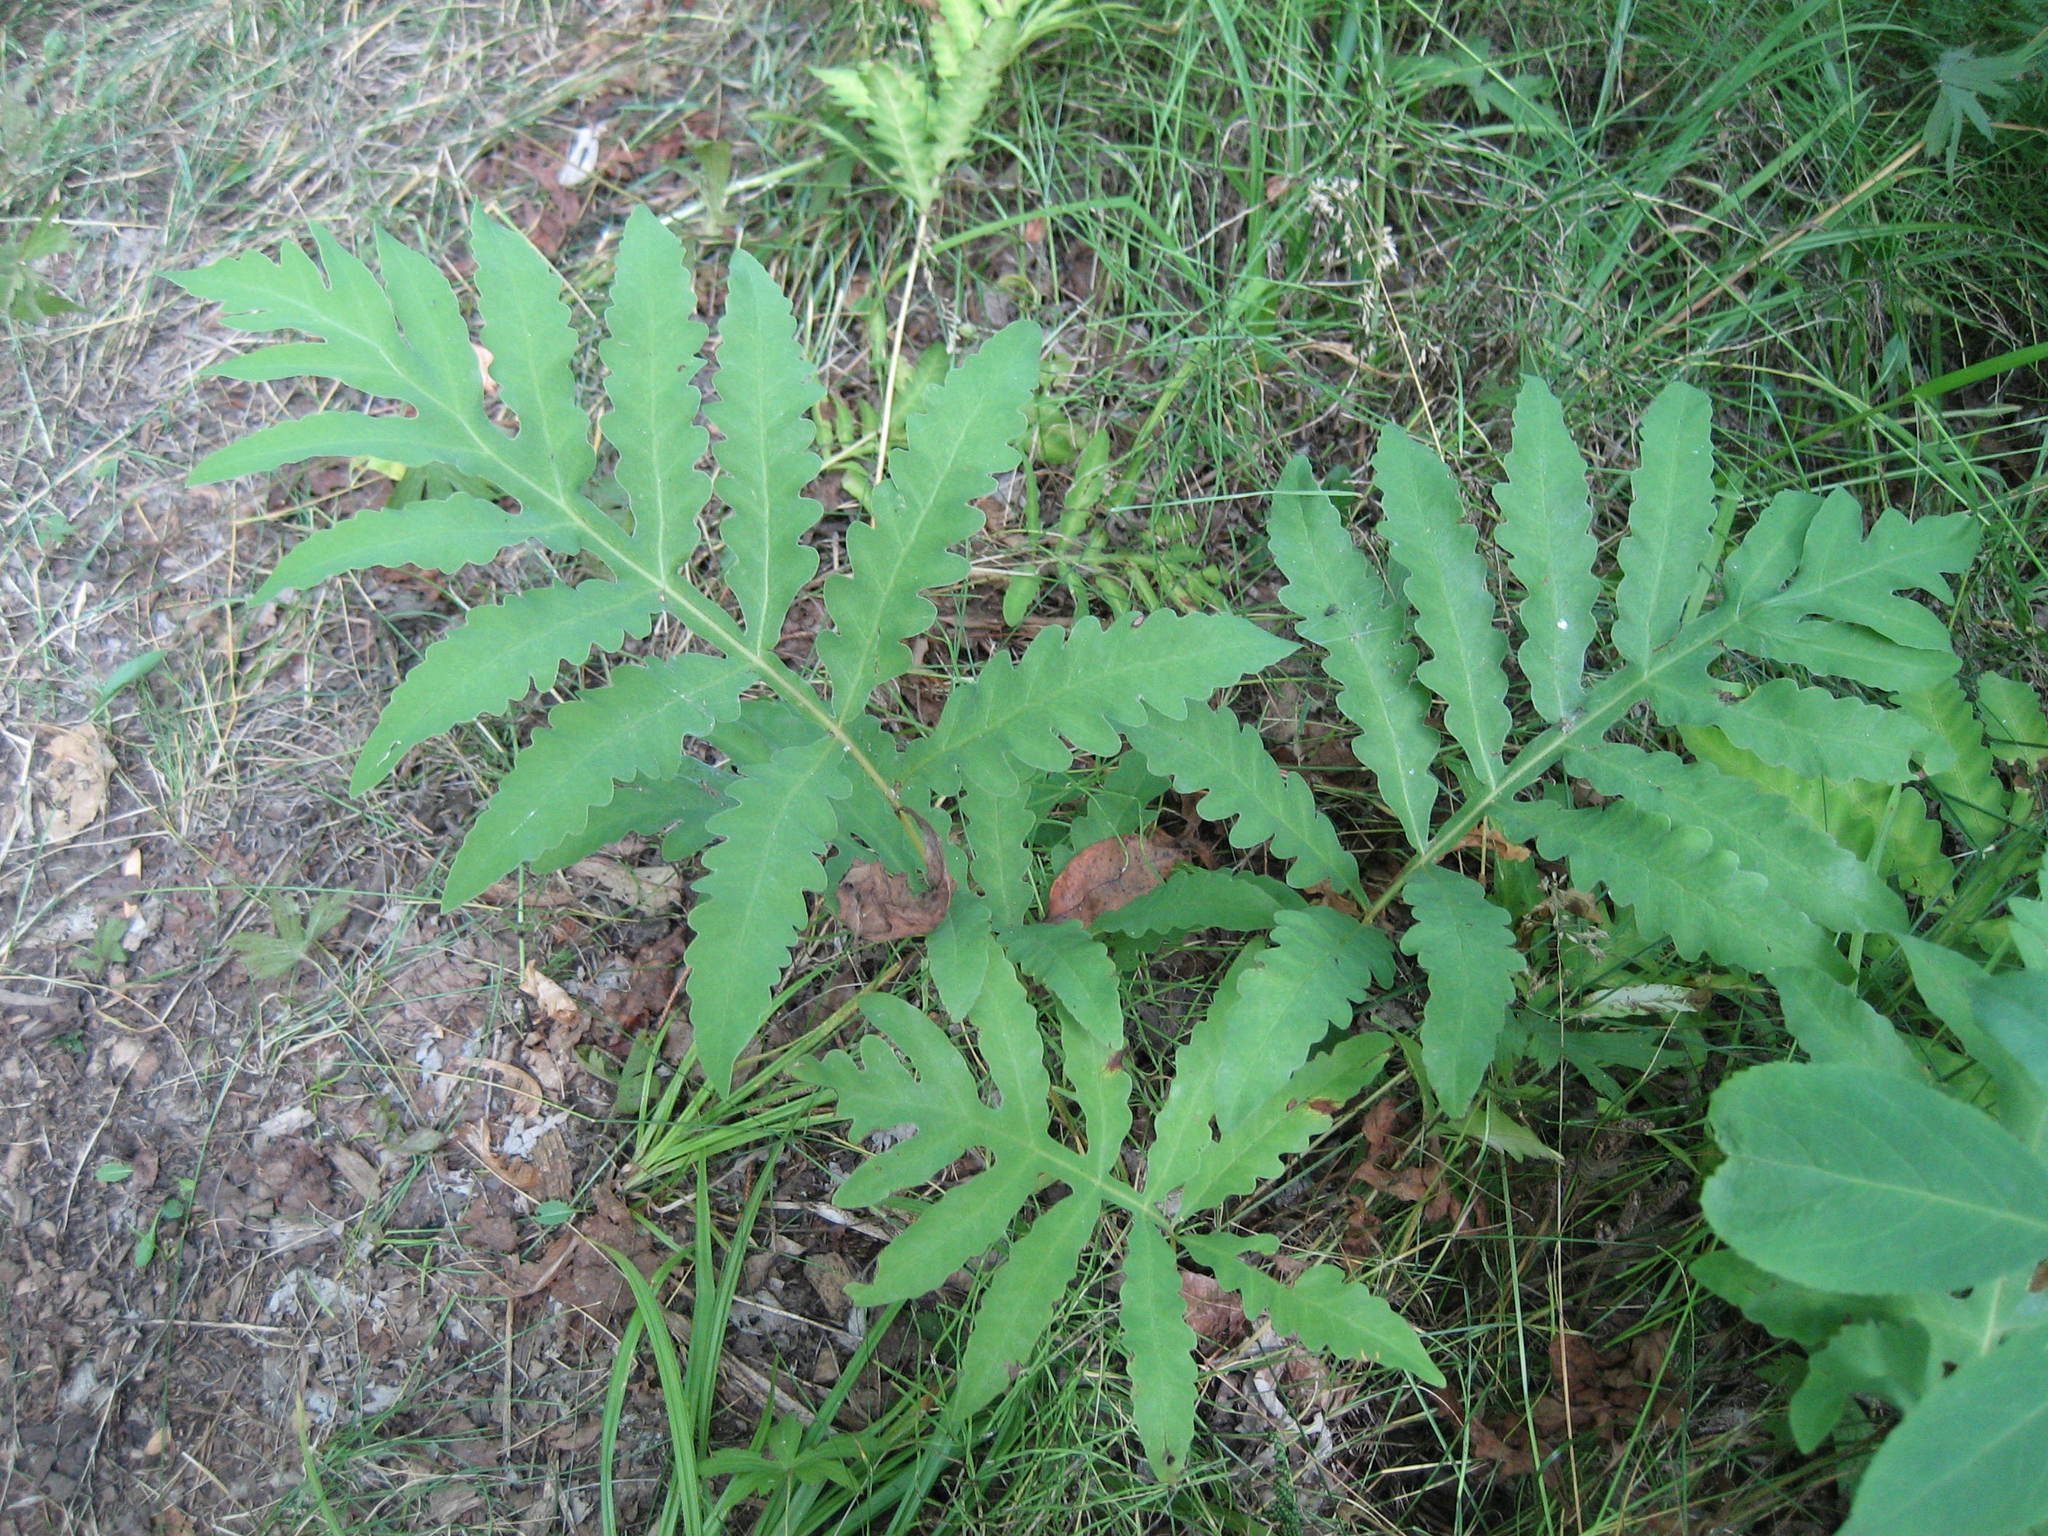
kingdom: Plantae
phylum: Tracheophyta
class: Polypodiopsida
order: Polypodiales
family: Onocleaceae
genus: Onoclea
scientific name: Onoclea sensibilis
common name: Sensitive fern
